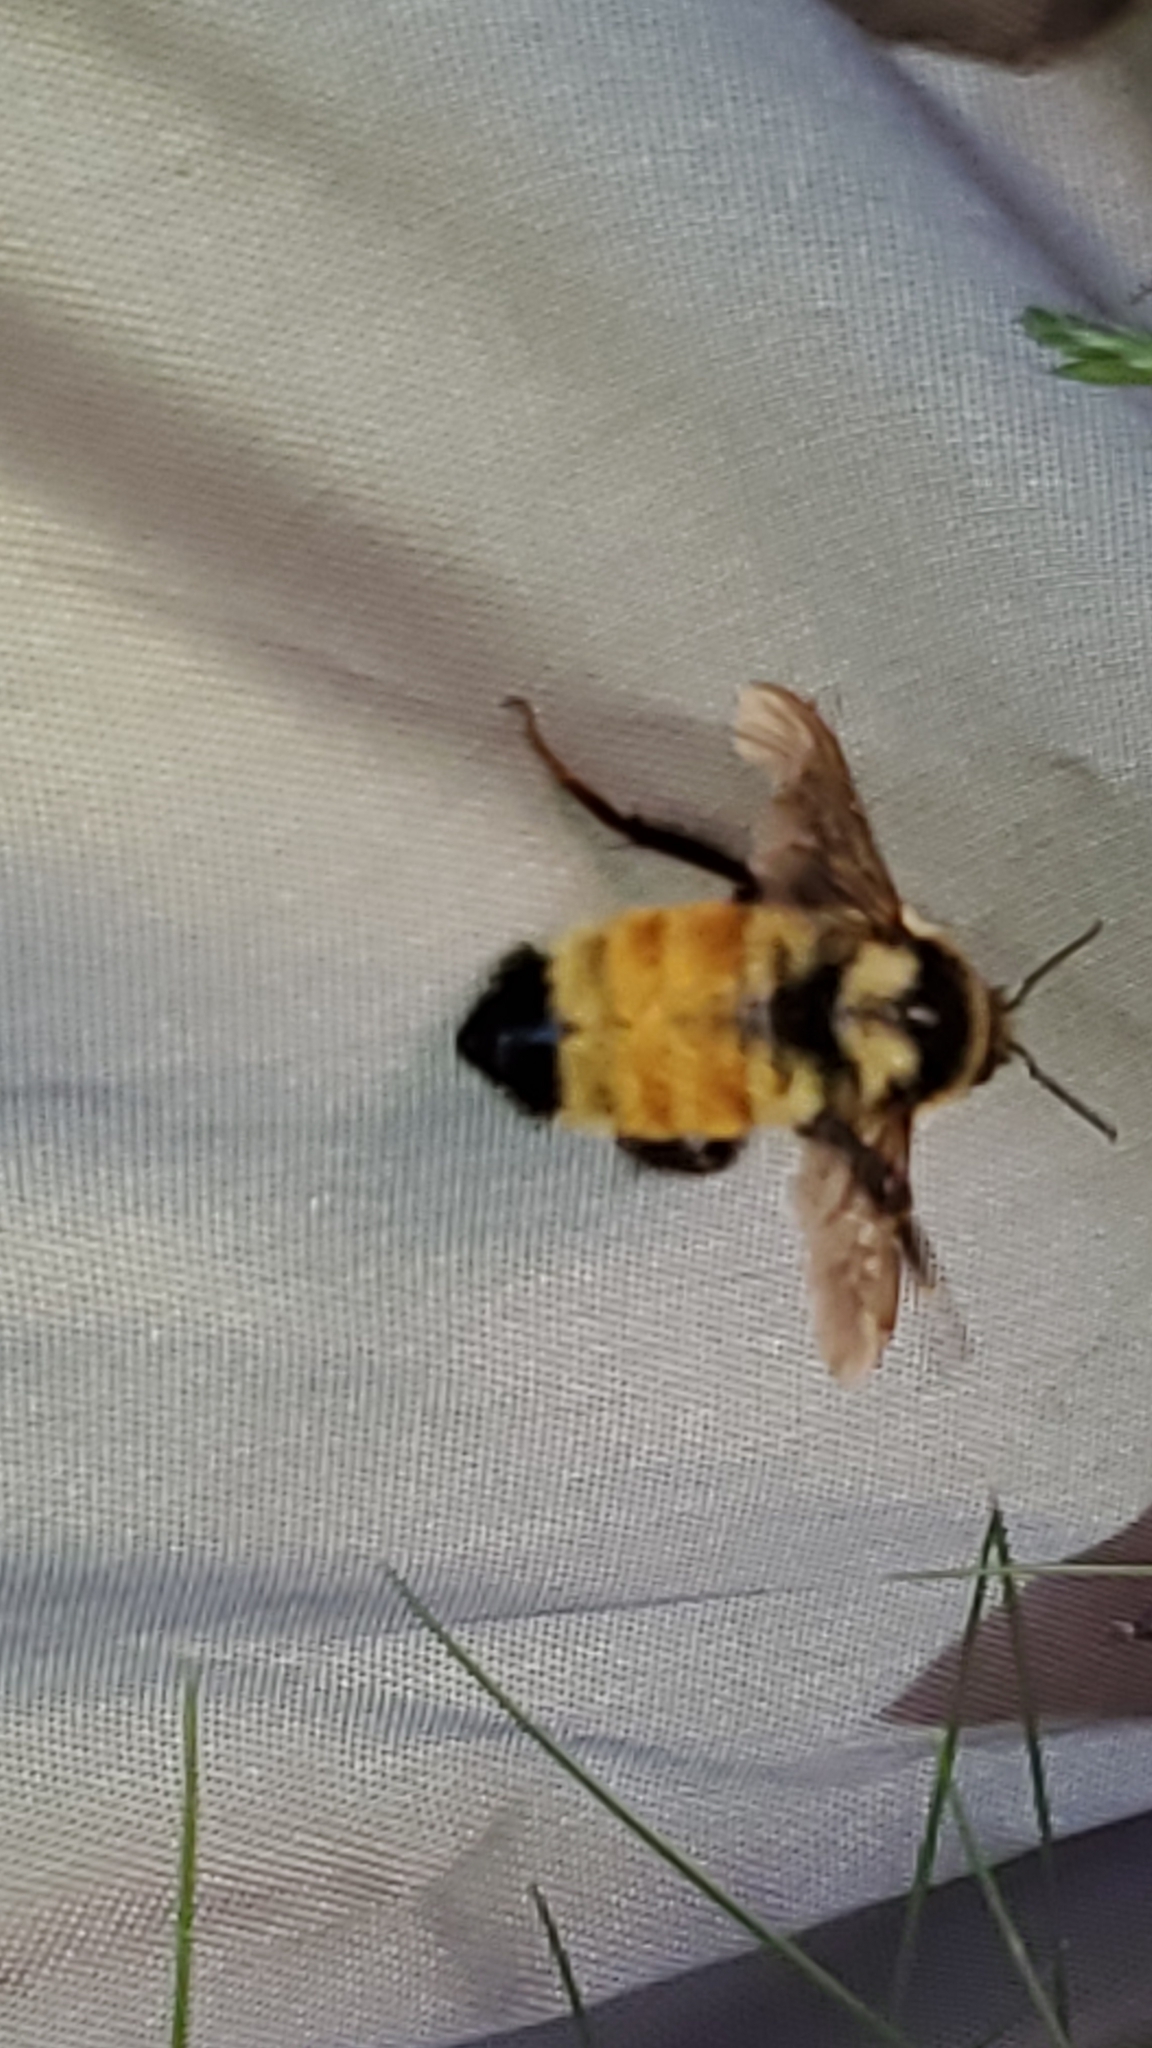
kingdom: Animalia
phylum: Arthropoda
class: Insecta
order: Hymenoptera
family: Apidae
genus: Bombus
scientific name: Bombus ternarius
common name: Tri-colored bumble bee
